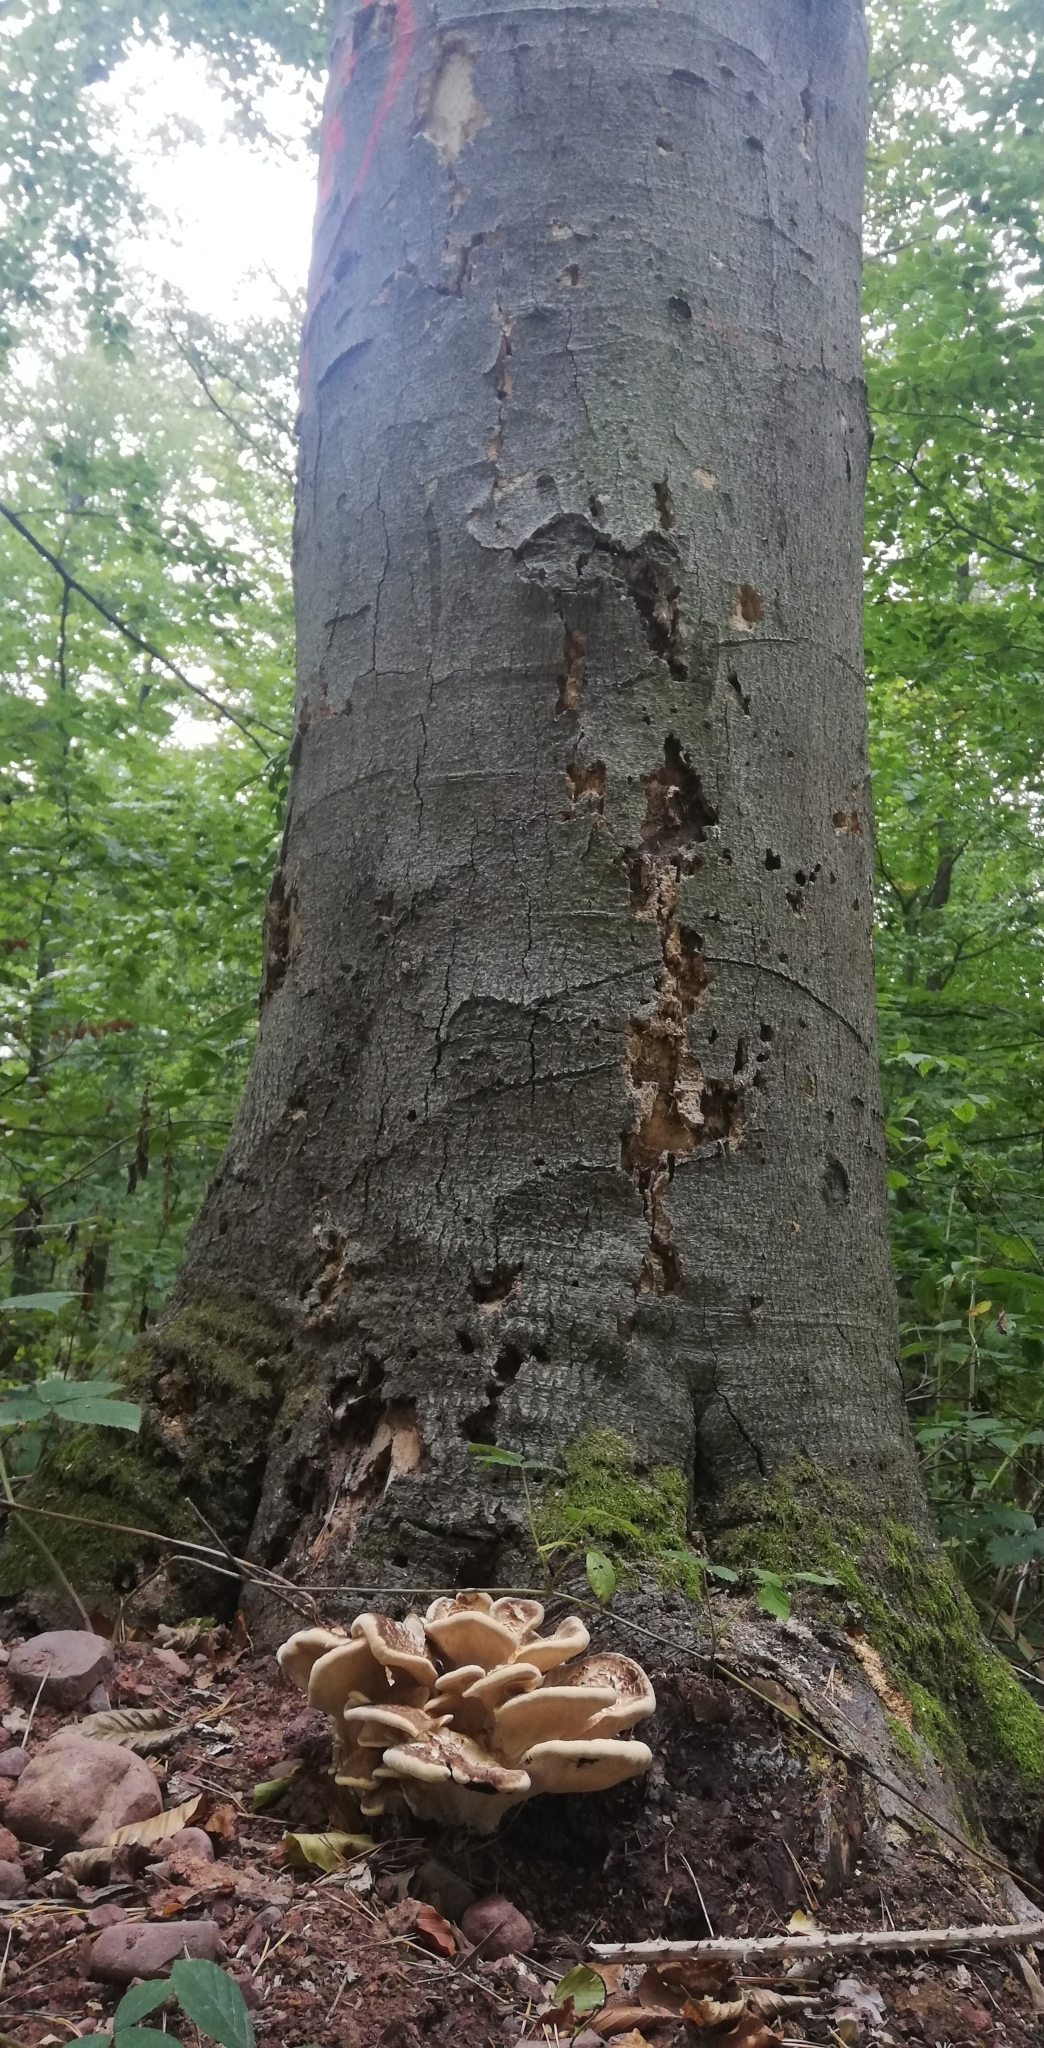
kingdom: Fungi
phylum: Basidiomycota
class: Agaricomycetes
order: Polyporales
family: Meripilaceae
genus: Meripilus
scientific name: Meripilus giganteus
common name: Giant polypore
